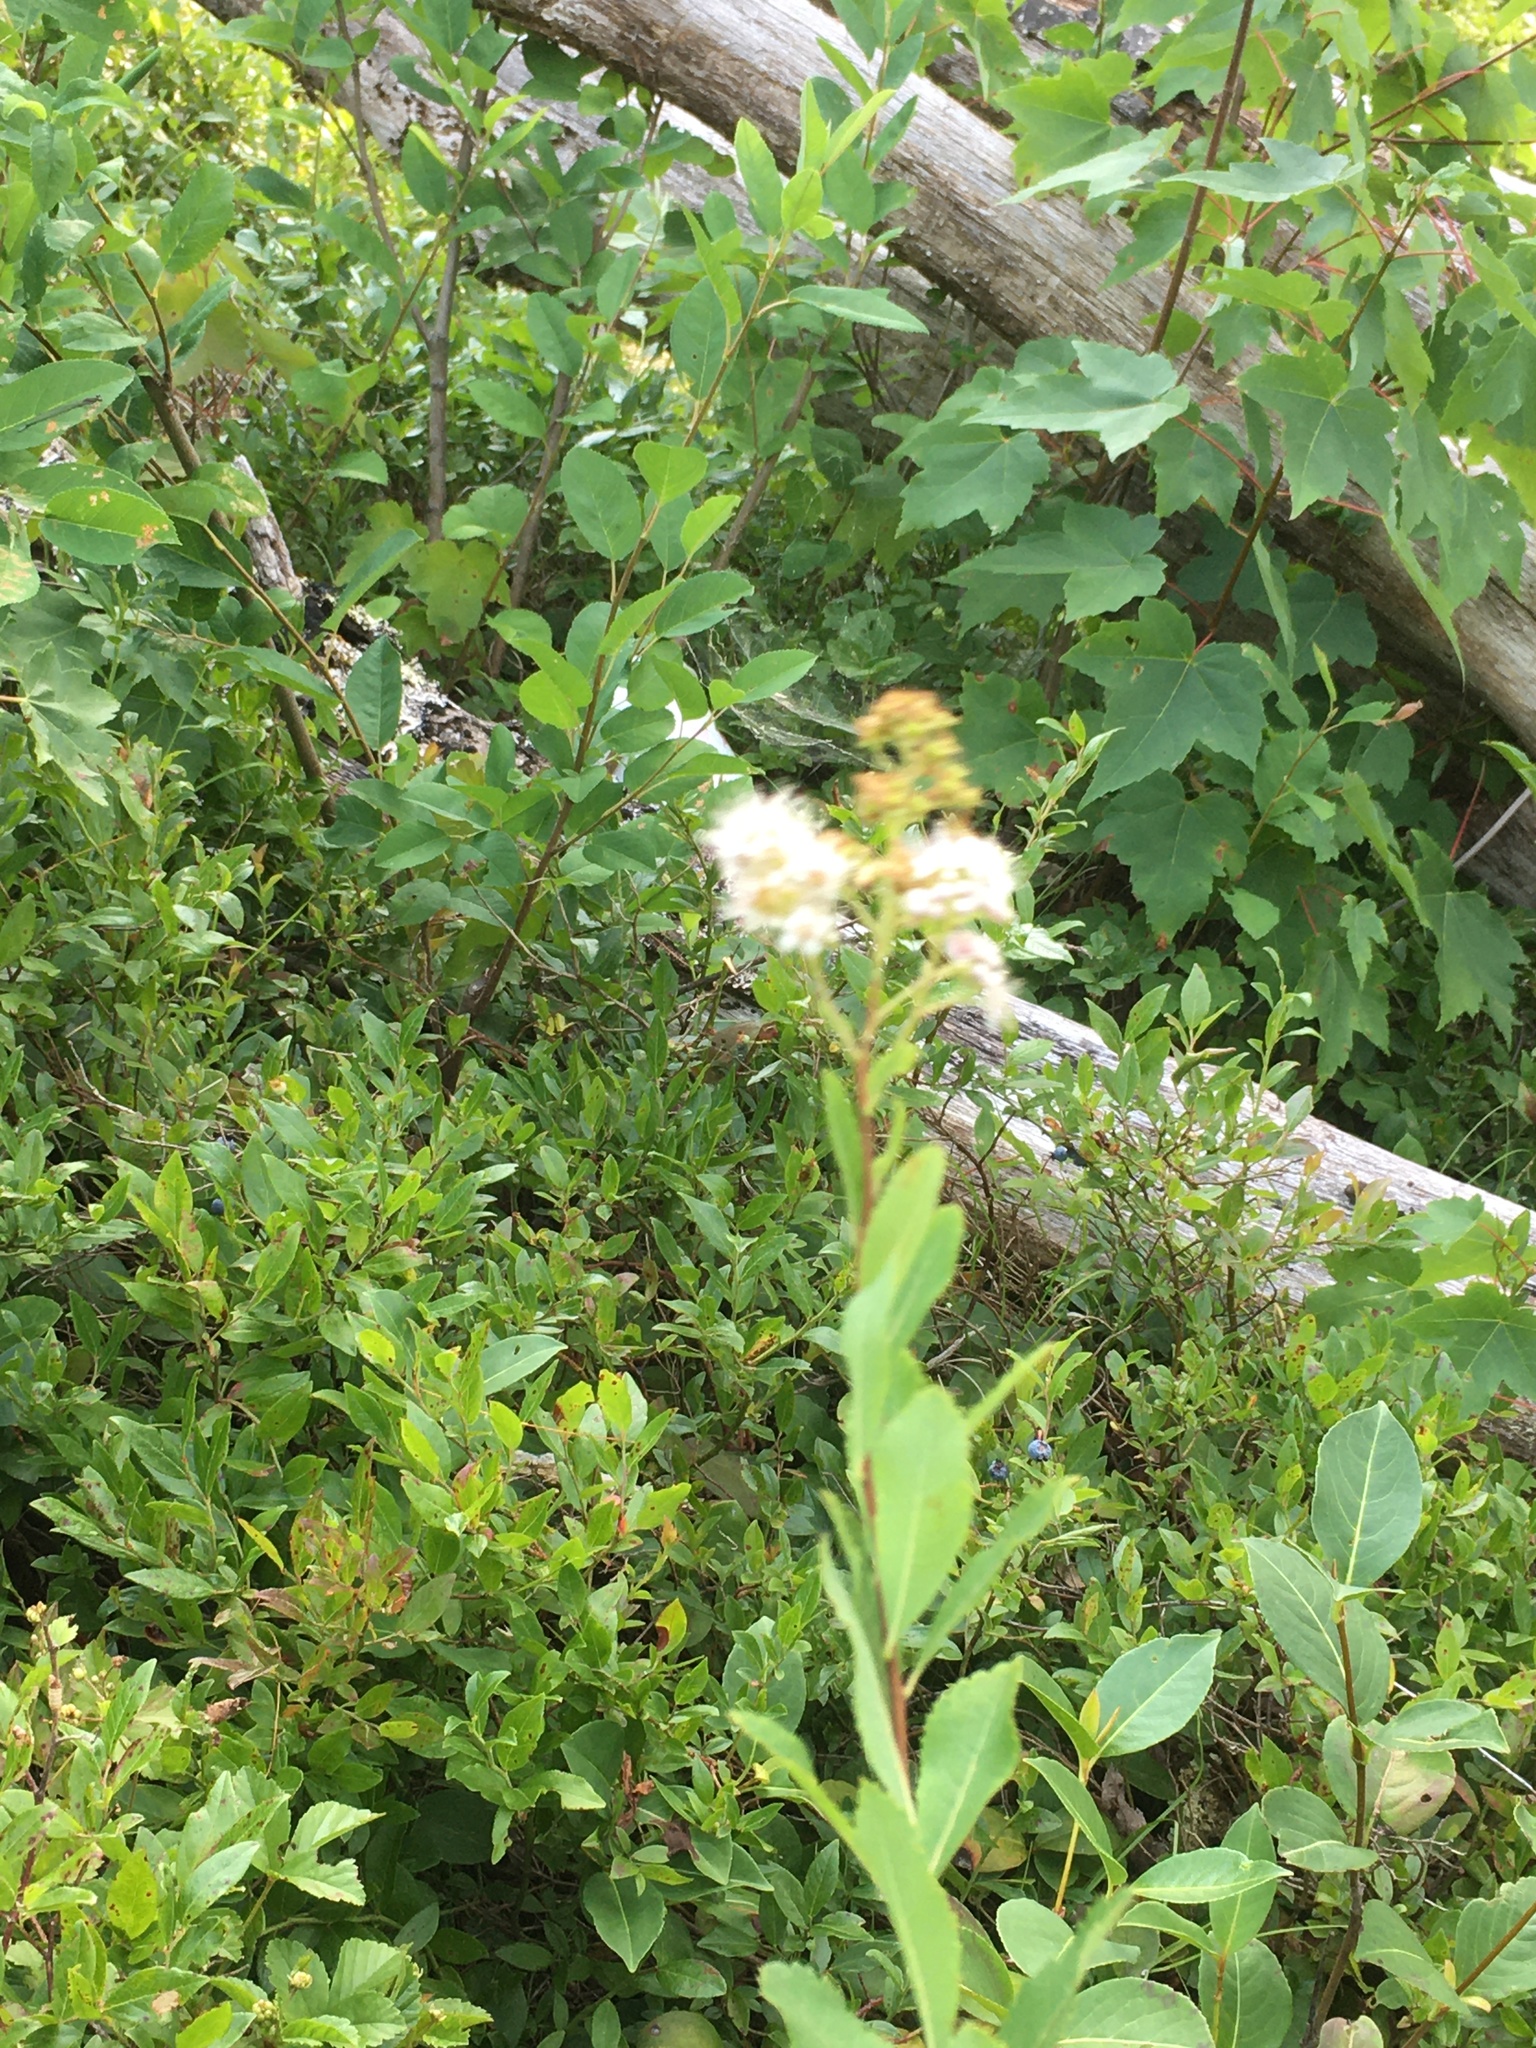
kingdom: Plantae
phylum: Tracheophyta
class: Magnoliopsida
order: Rosales
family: Rosaceae
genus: Spiraea
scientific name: Spiraea alba
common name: Pale bridewort
